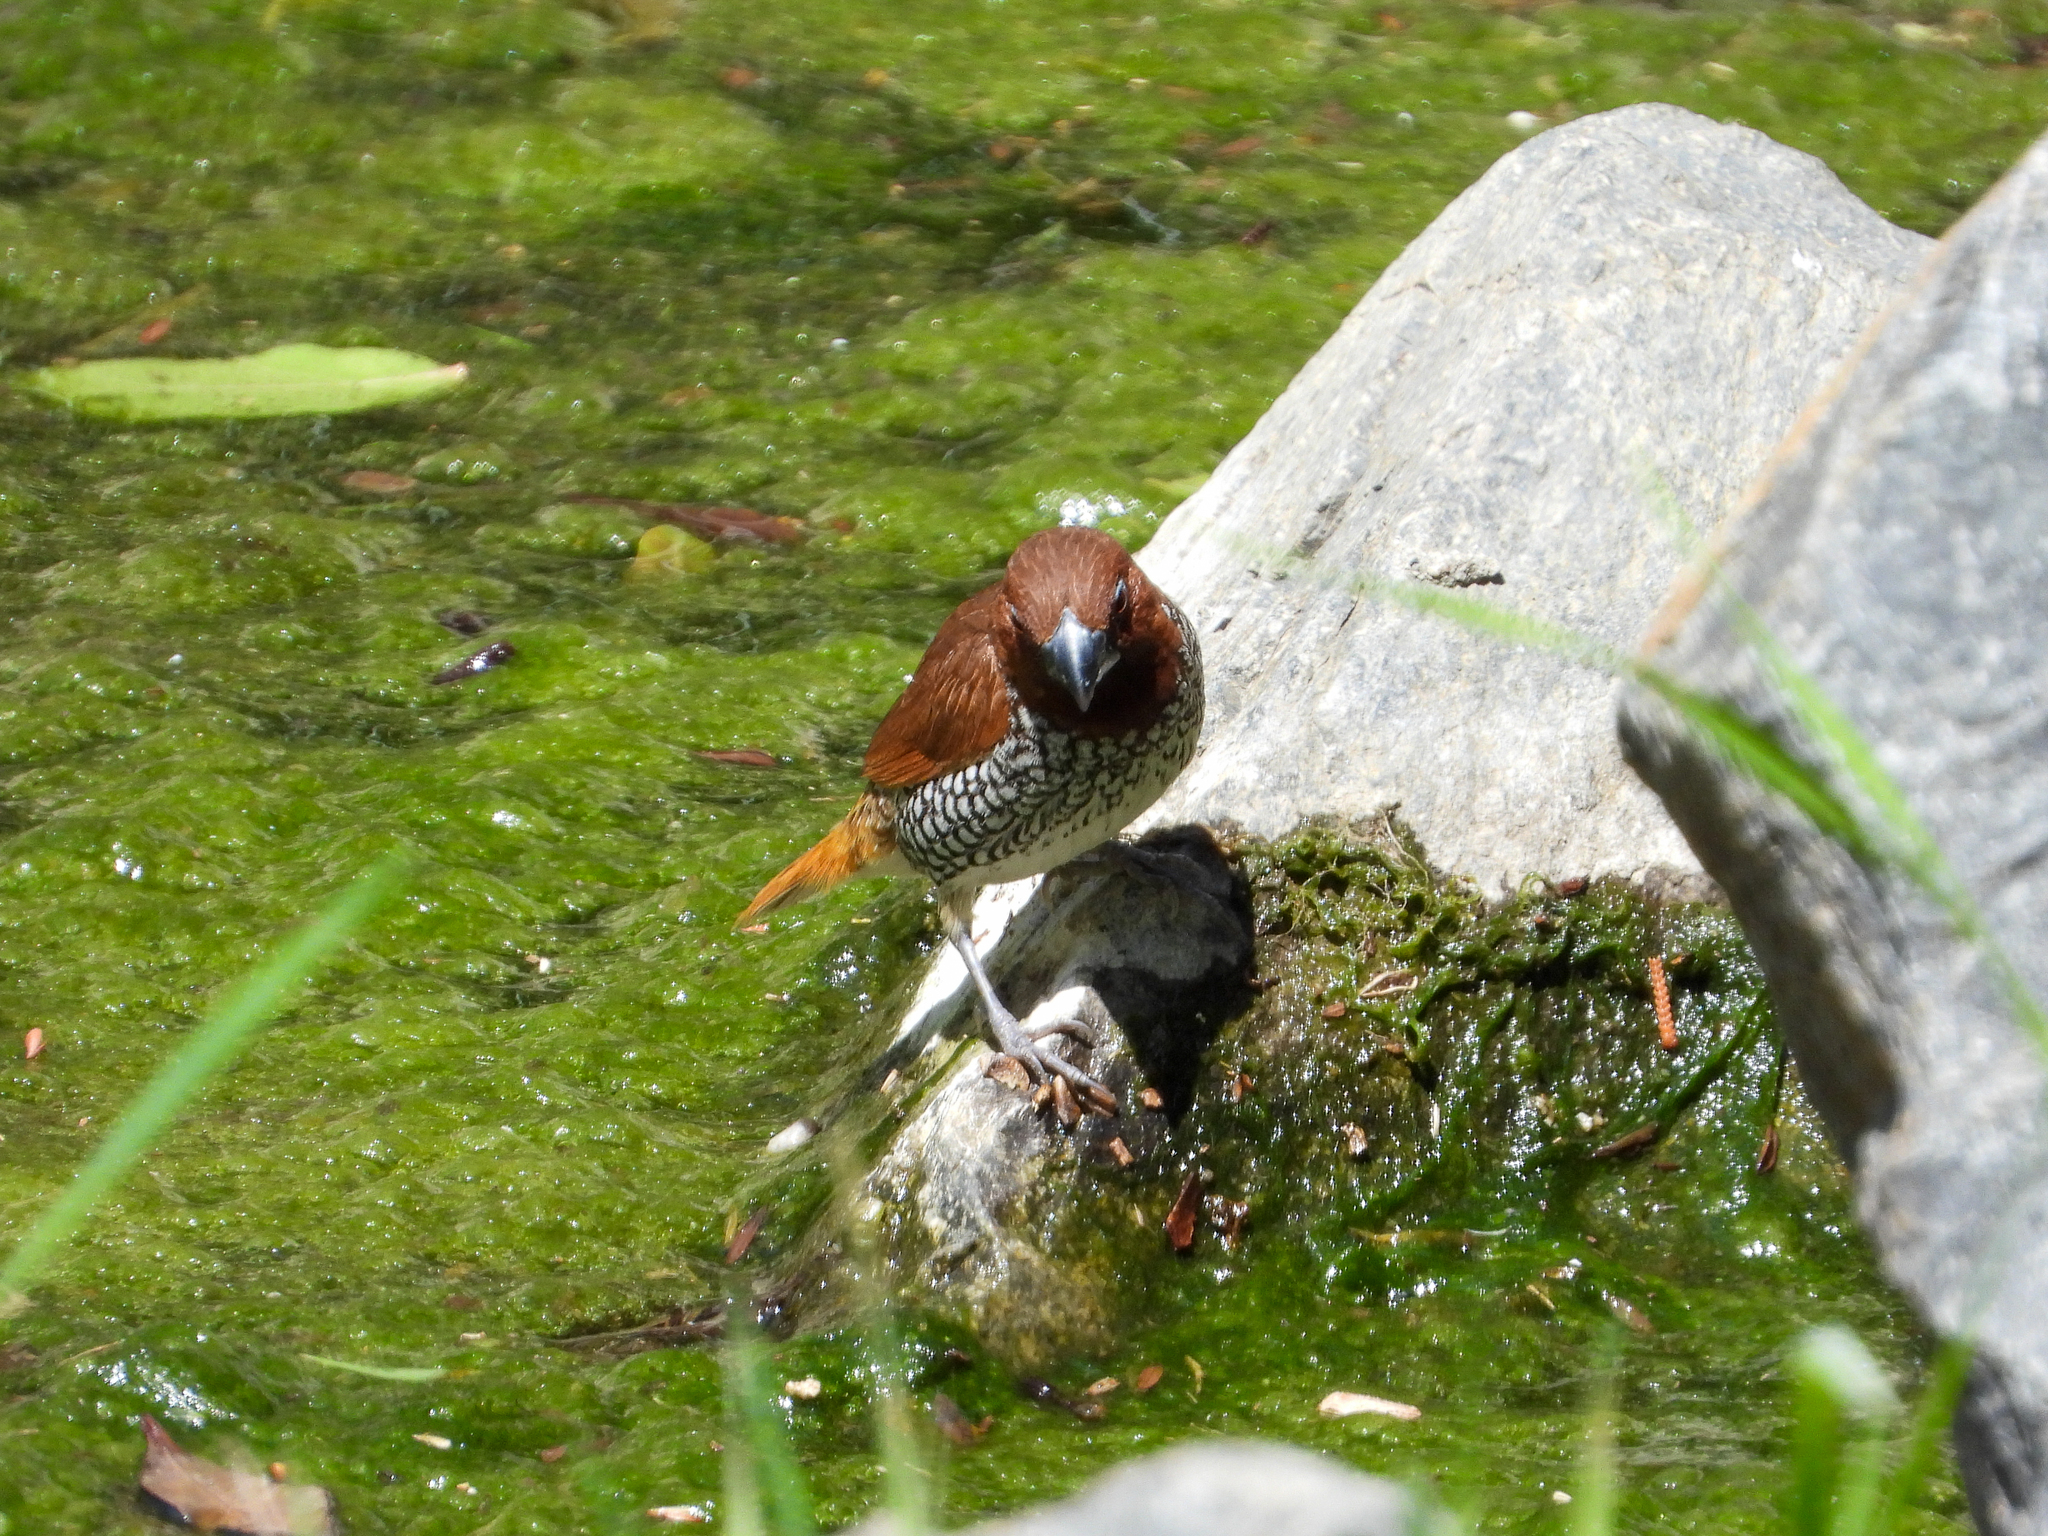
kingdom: Animalia
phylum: Chordata
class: Aves
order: Passeriformes
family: Estrildidae
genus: Lonchura
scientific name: Lonchura punctulata
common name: Scaly-breasted munia
